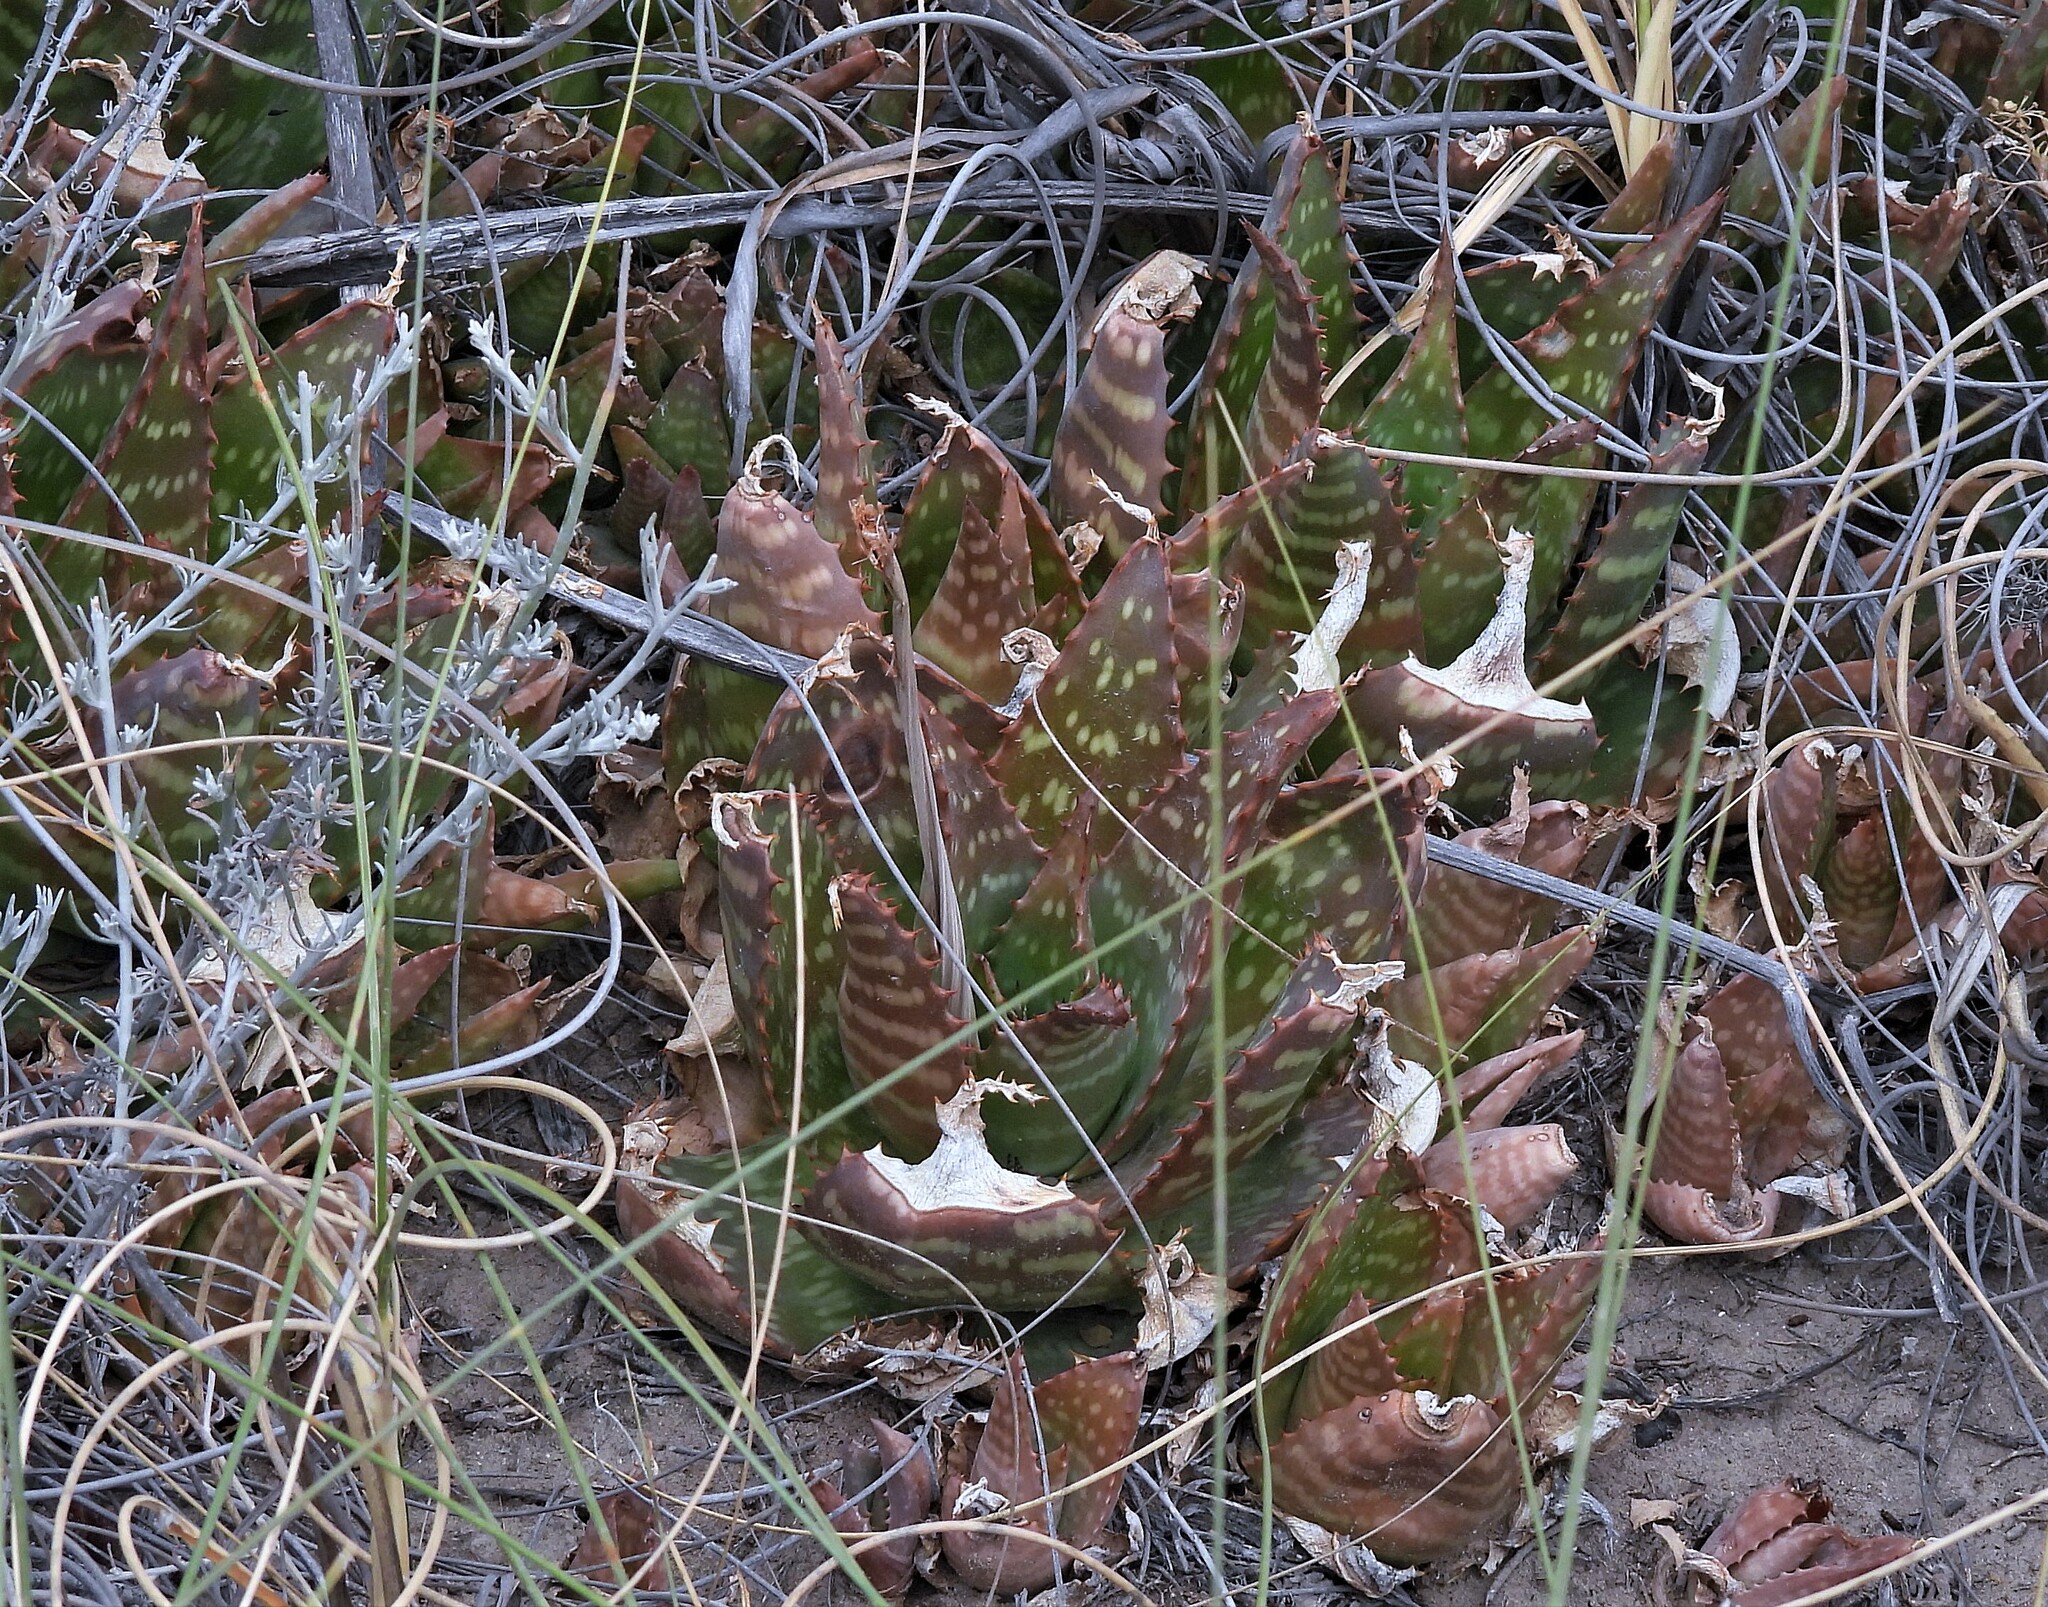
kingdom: Plantae
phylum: Tracheophyta
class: Liliopsida
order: Asparagales
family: Asphodelaceae
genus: Aloe
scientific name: Aloe maculata
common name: Broadleaf aloe
